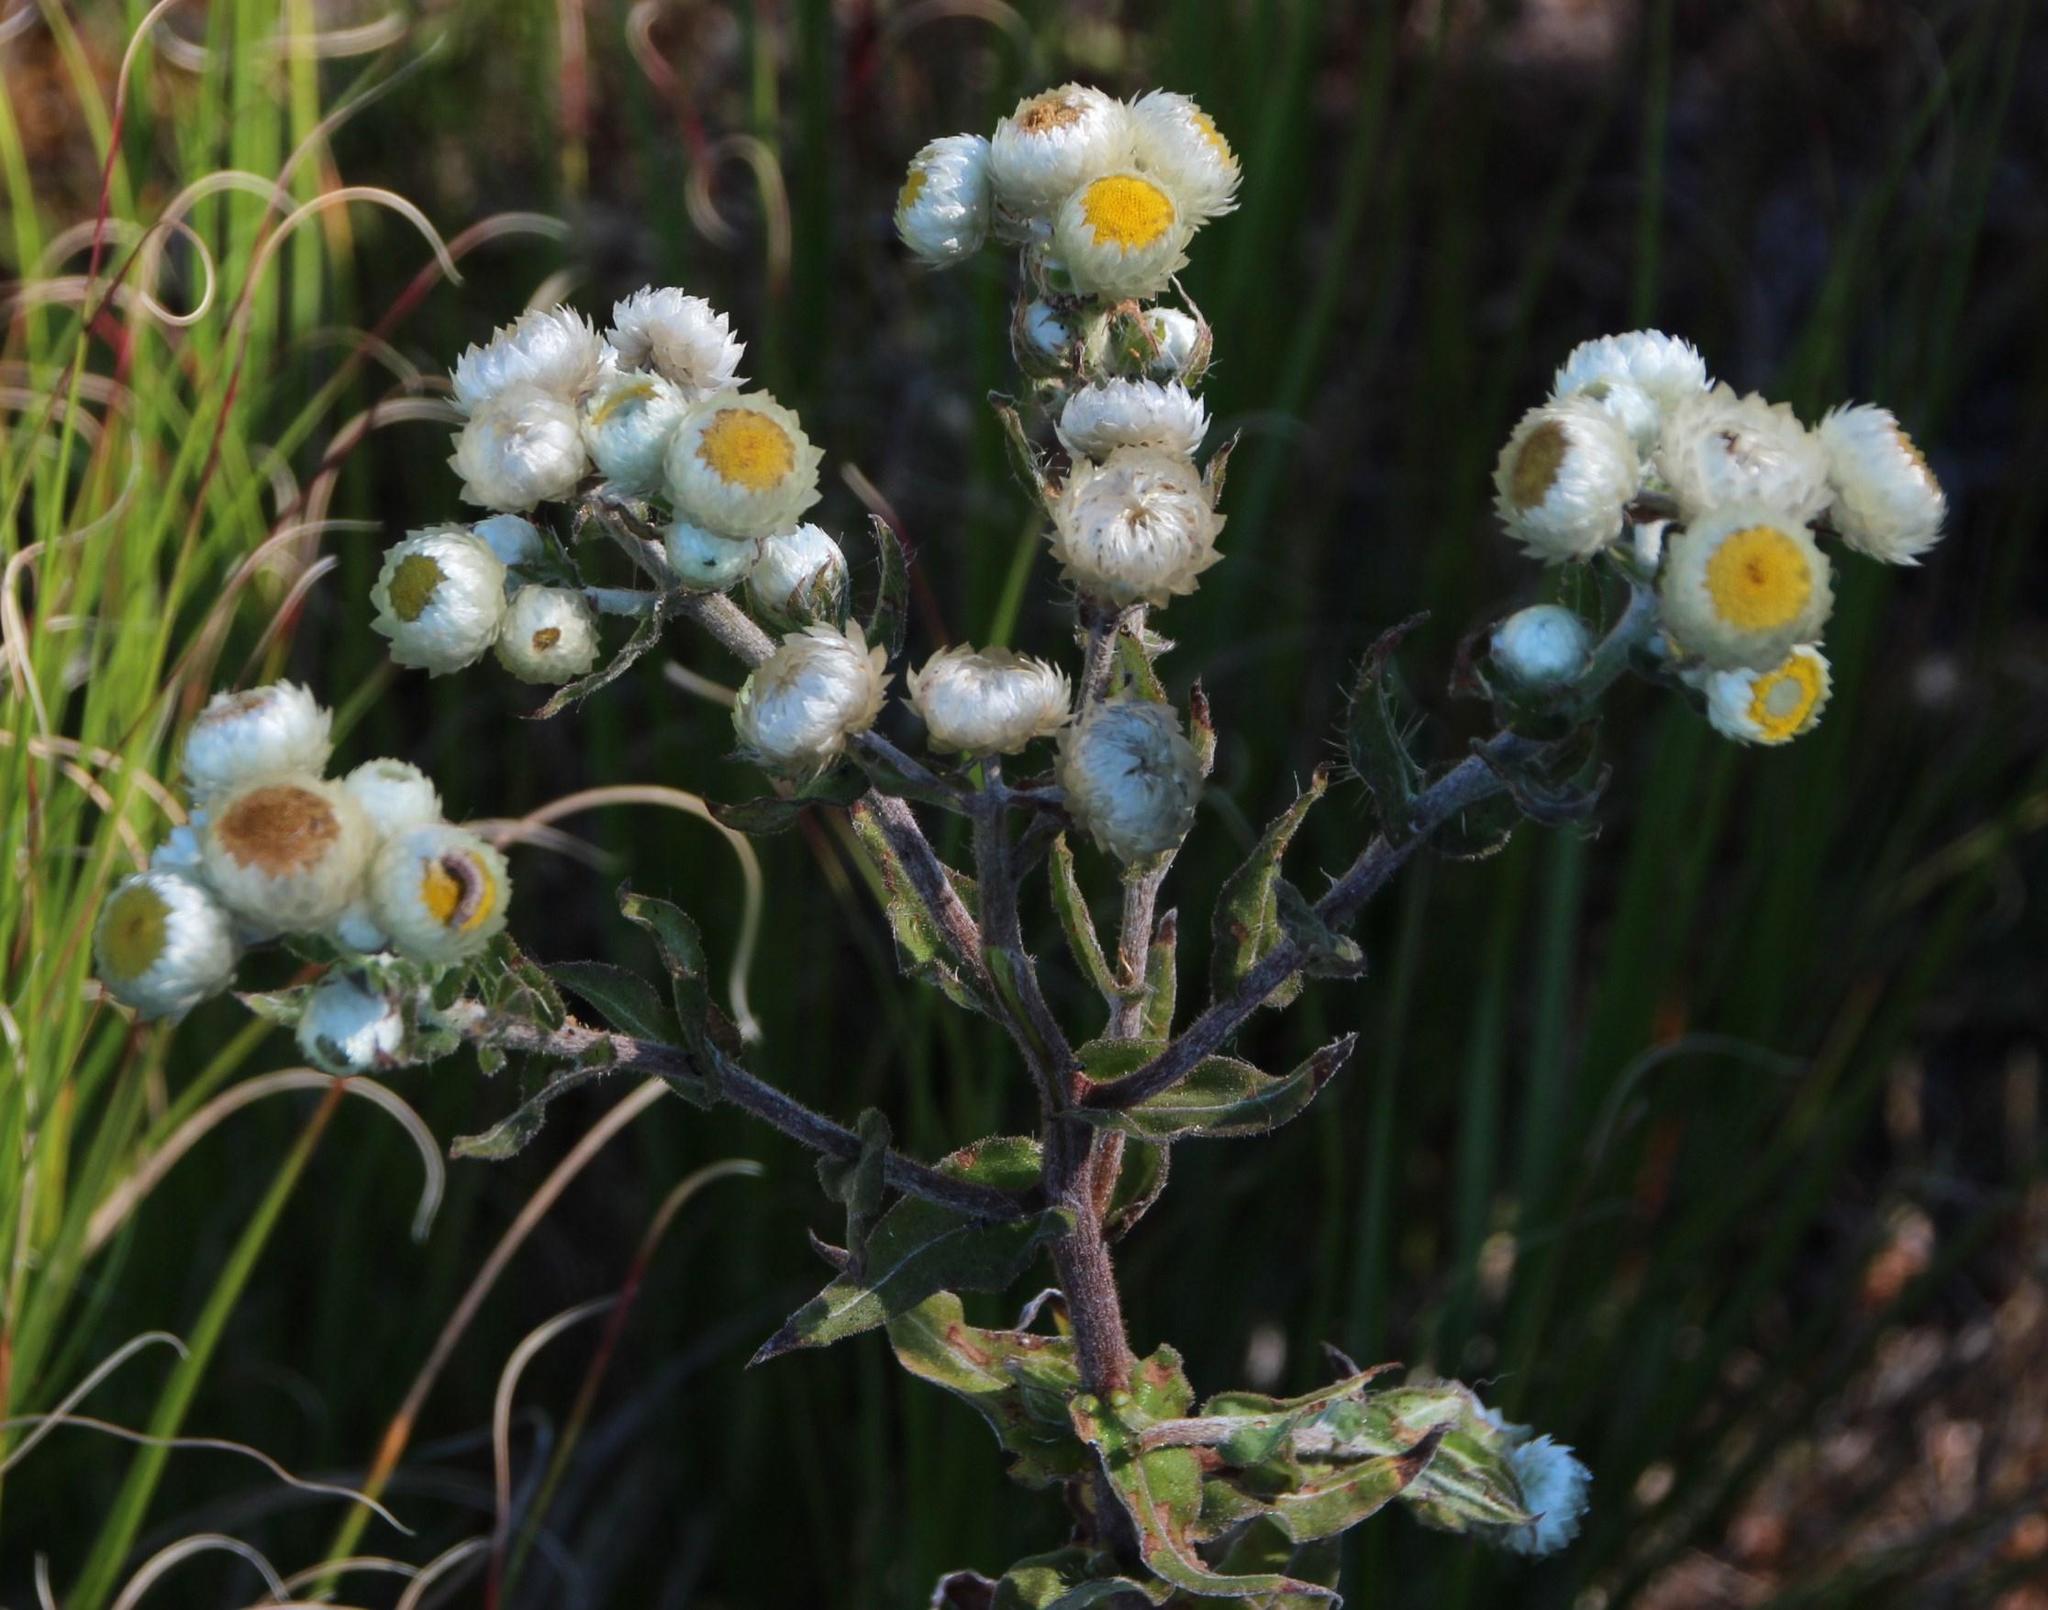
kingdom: Plantae
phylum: Tracheophyta
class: Magnoliopsida
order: Asterales
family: Asteraceae
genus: Helichrysum
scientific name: Helichrysum foetidum
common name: Stinking everlasting
